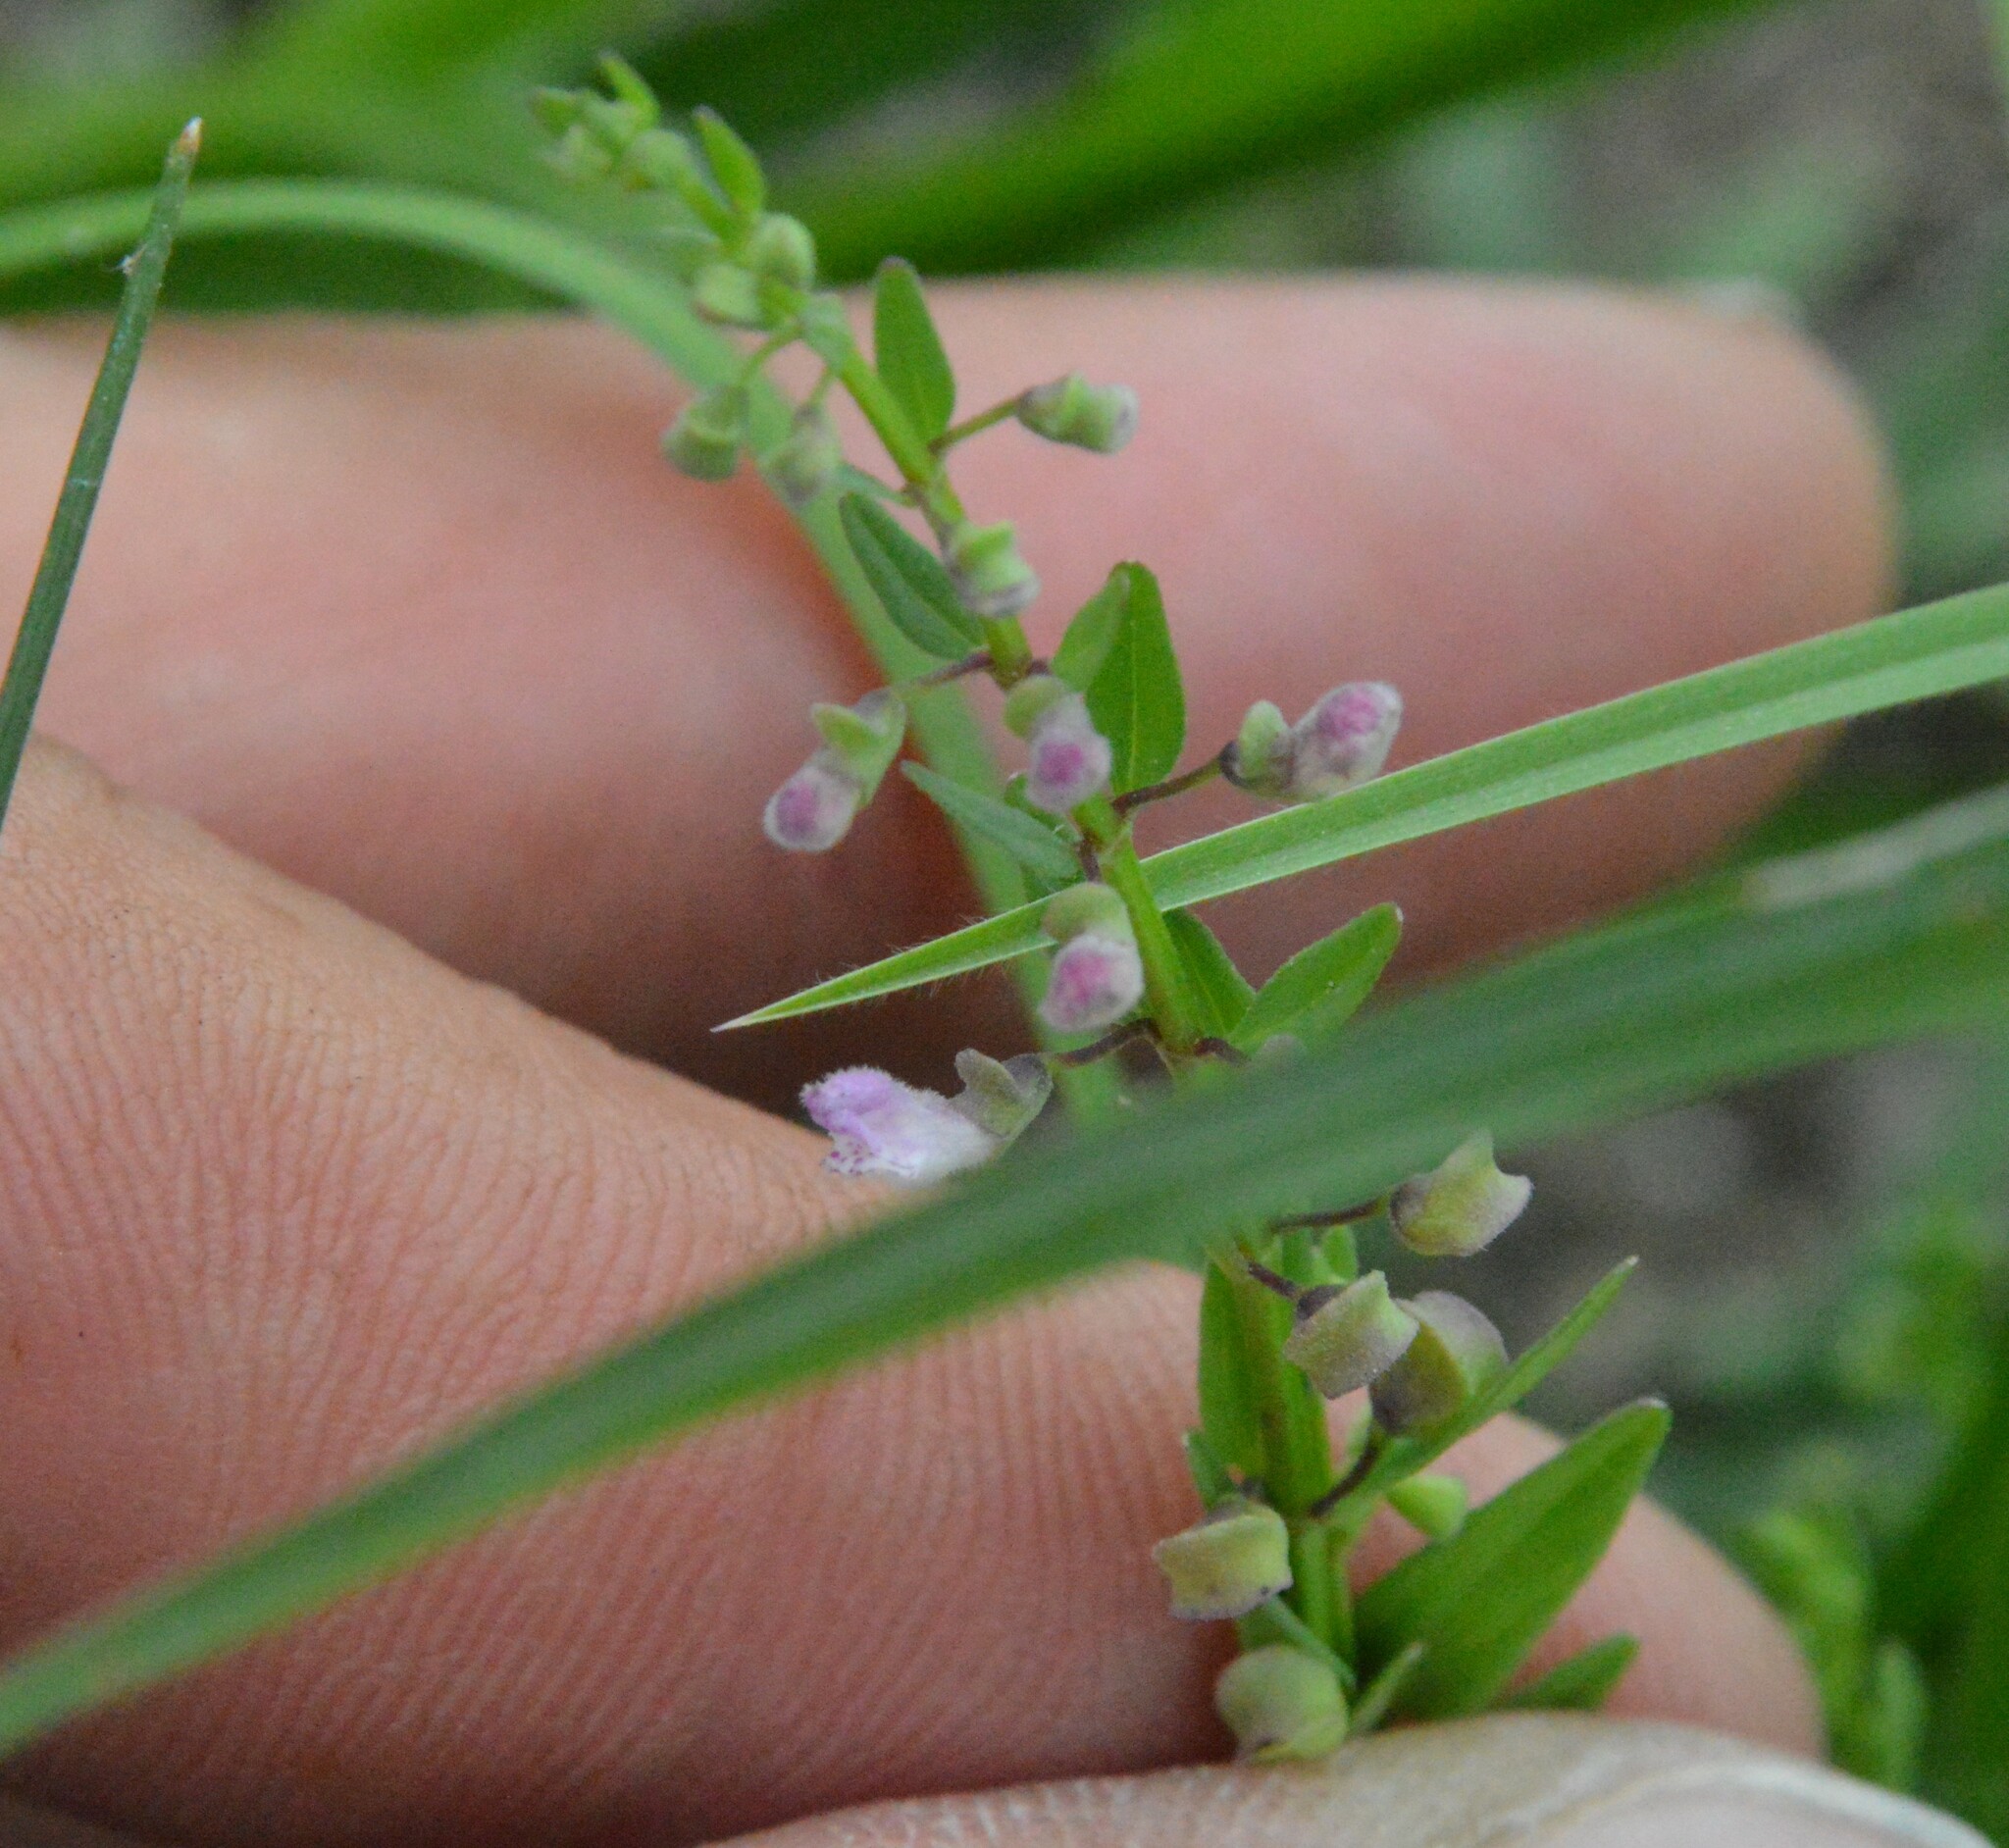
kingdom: Plantae
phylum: Tracheophyta
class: Magnoliopsida
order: Lamiales
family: Lamiaceae
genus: Scutellaria
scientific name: Scutellaria racemosa
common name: South american skullcap
